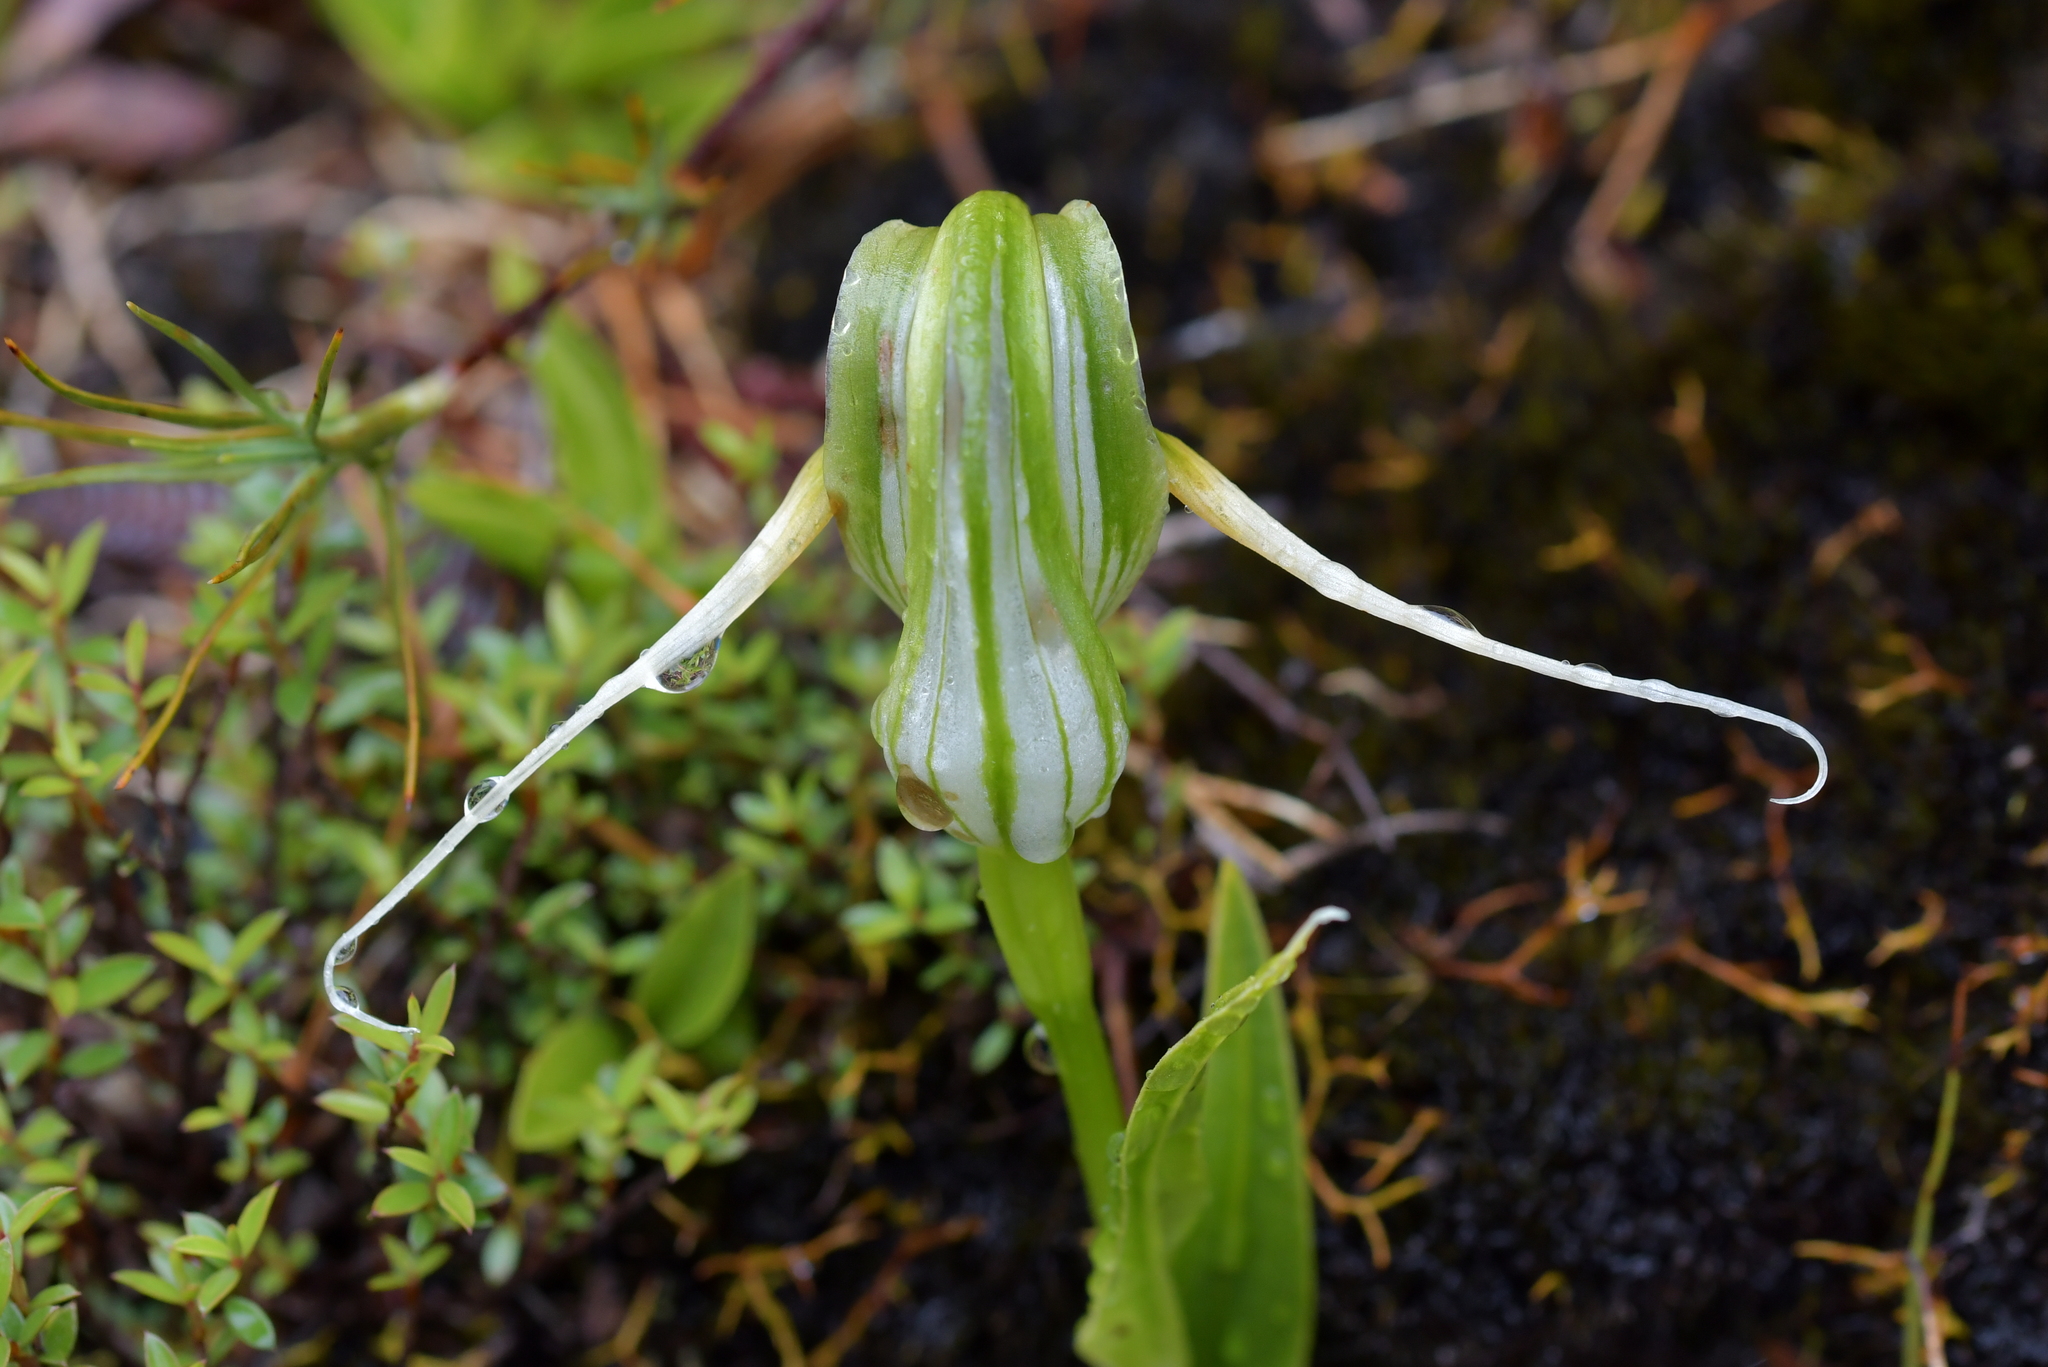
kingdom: Plantae
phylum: Tracheophyta
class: Liliopsida
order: Asparagales
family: Orchidaceae
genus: Pterostylis
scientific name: Pterostylis patens
